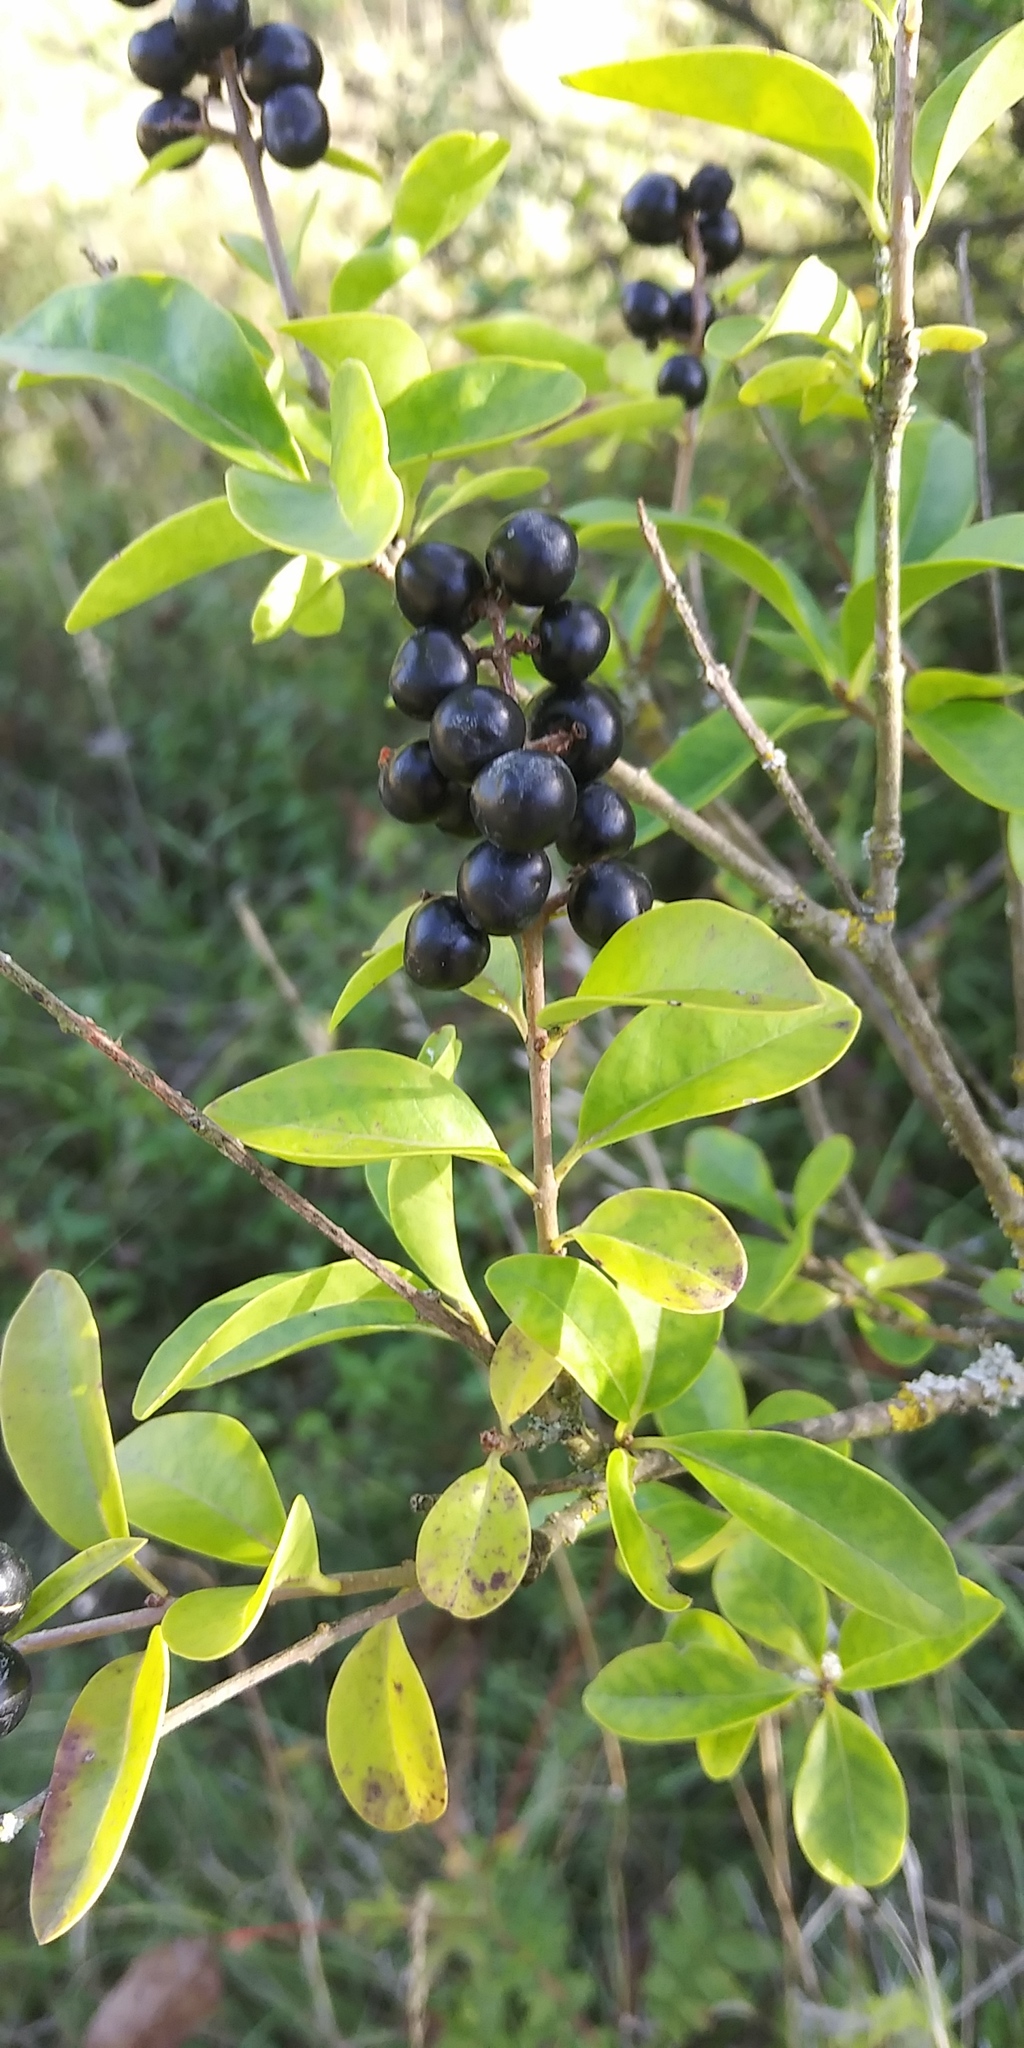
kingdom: Plantae
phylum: Tracheophyta
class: Magnoliopsida
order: Lamiales
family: Oleaceae
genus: Ligustrum
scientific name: Ligustrum vulgare
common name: Wild privet
